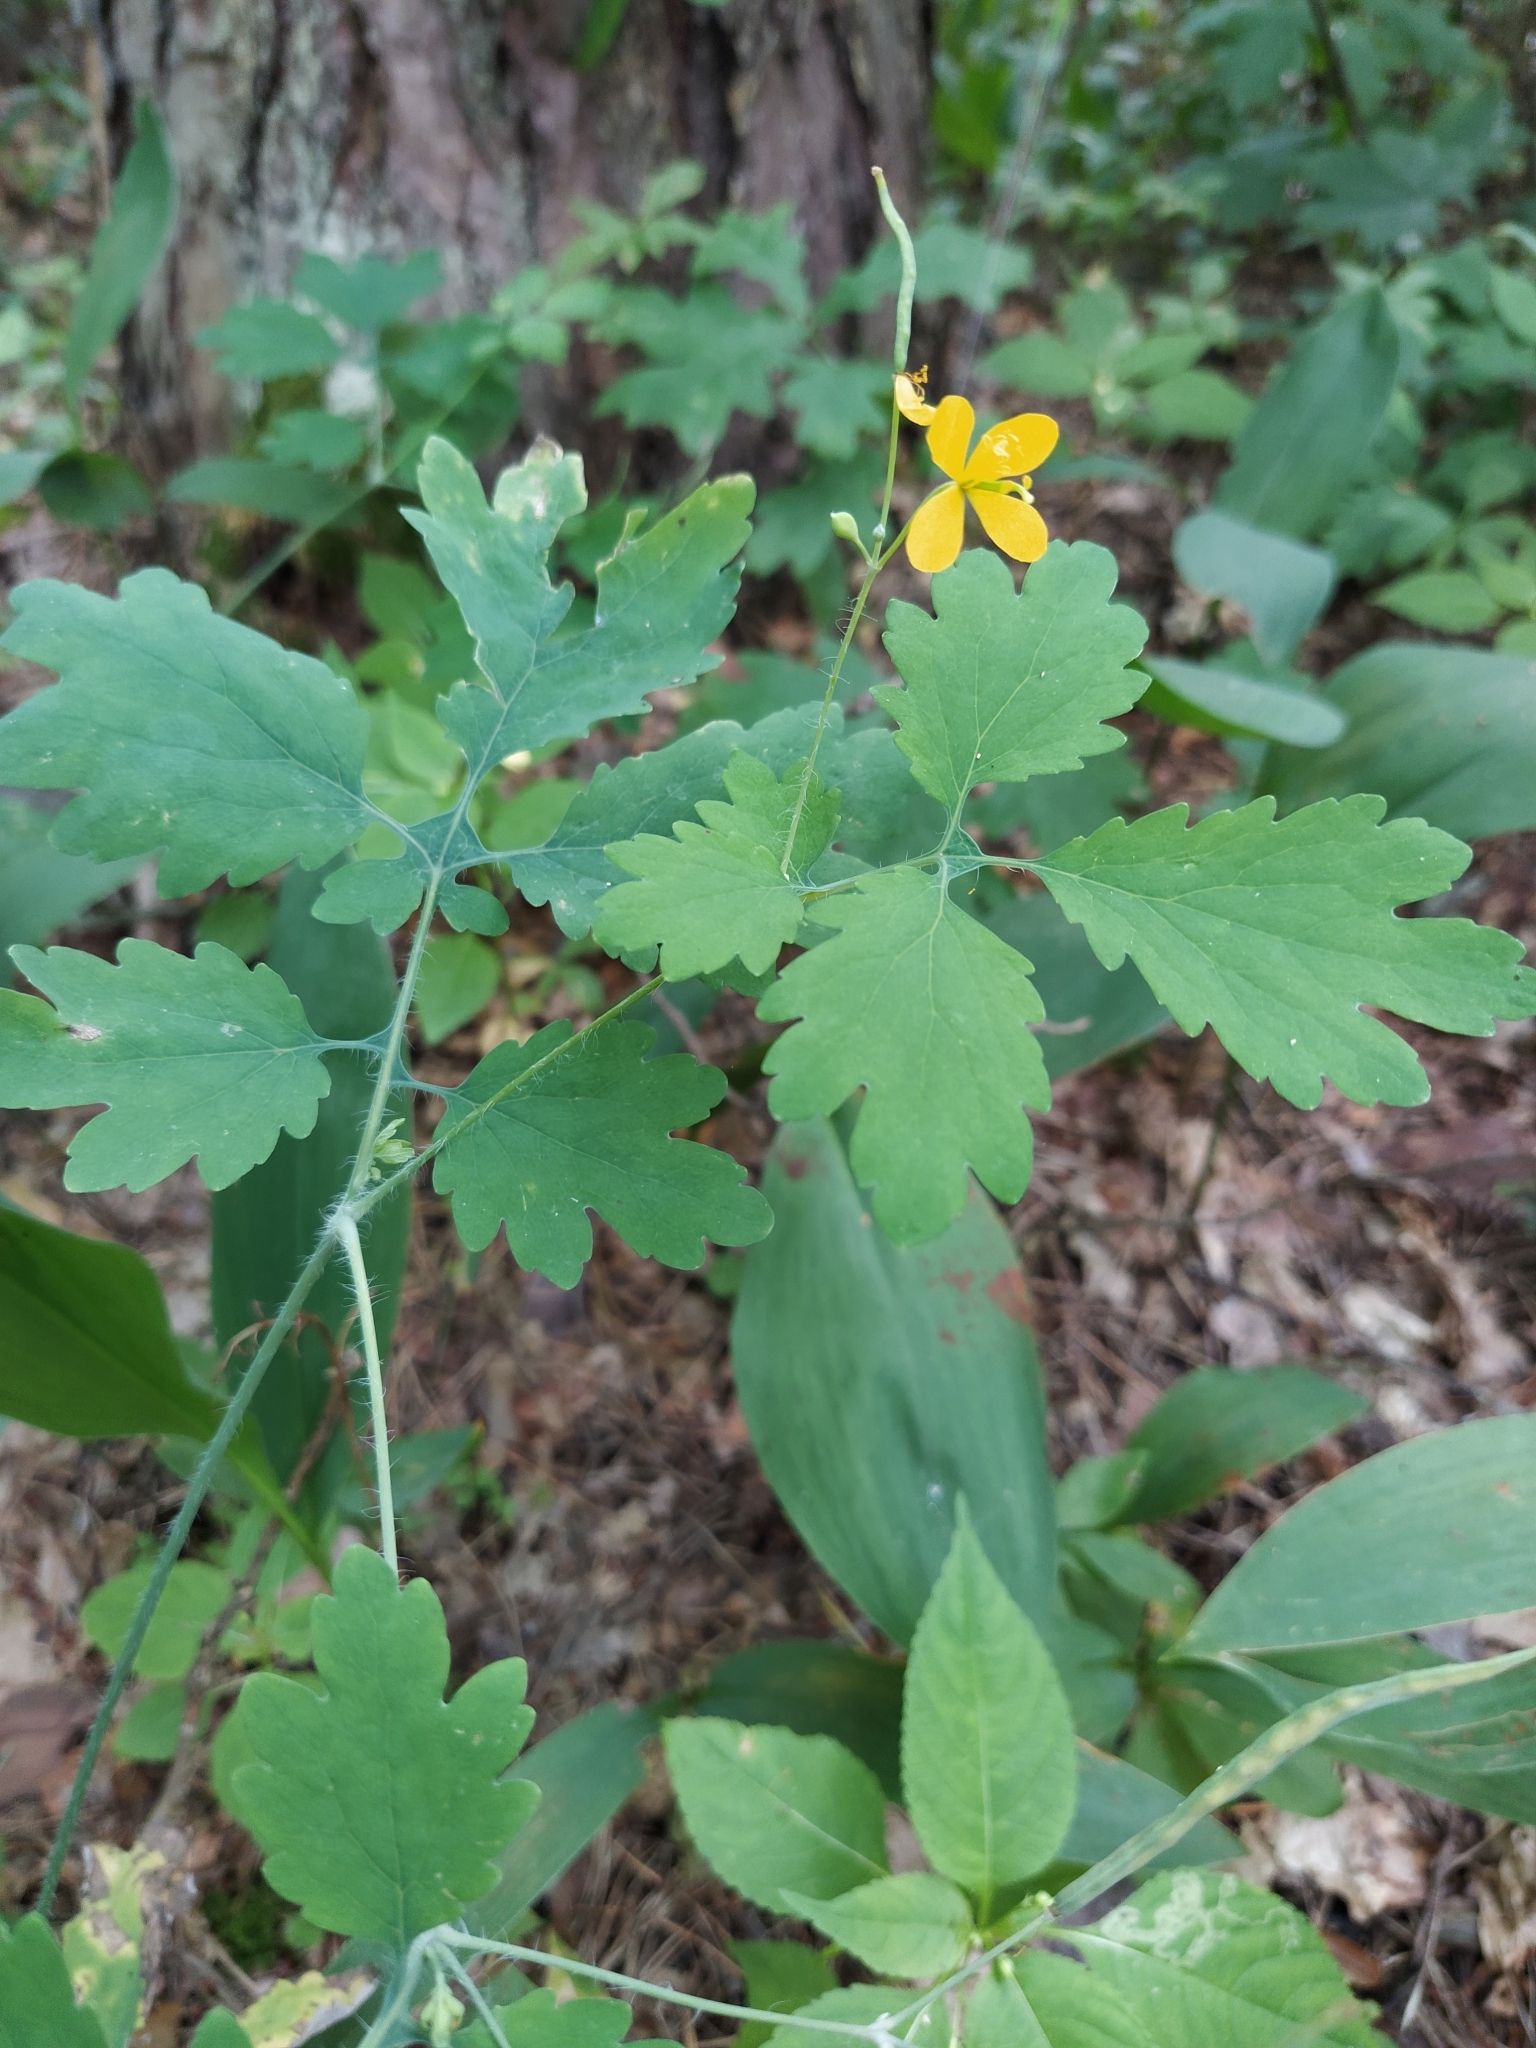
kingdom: Plantae
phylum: Tracheophyta
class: Magnoliopsida
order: Ranunculales
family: Papaveraceae
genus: Chelidonium
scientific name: Chelidonium majus
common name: Greater celandine
